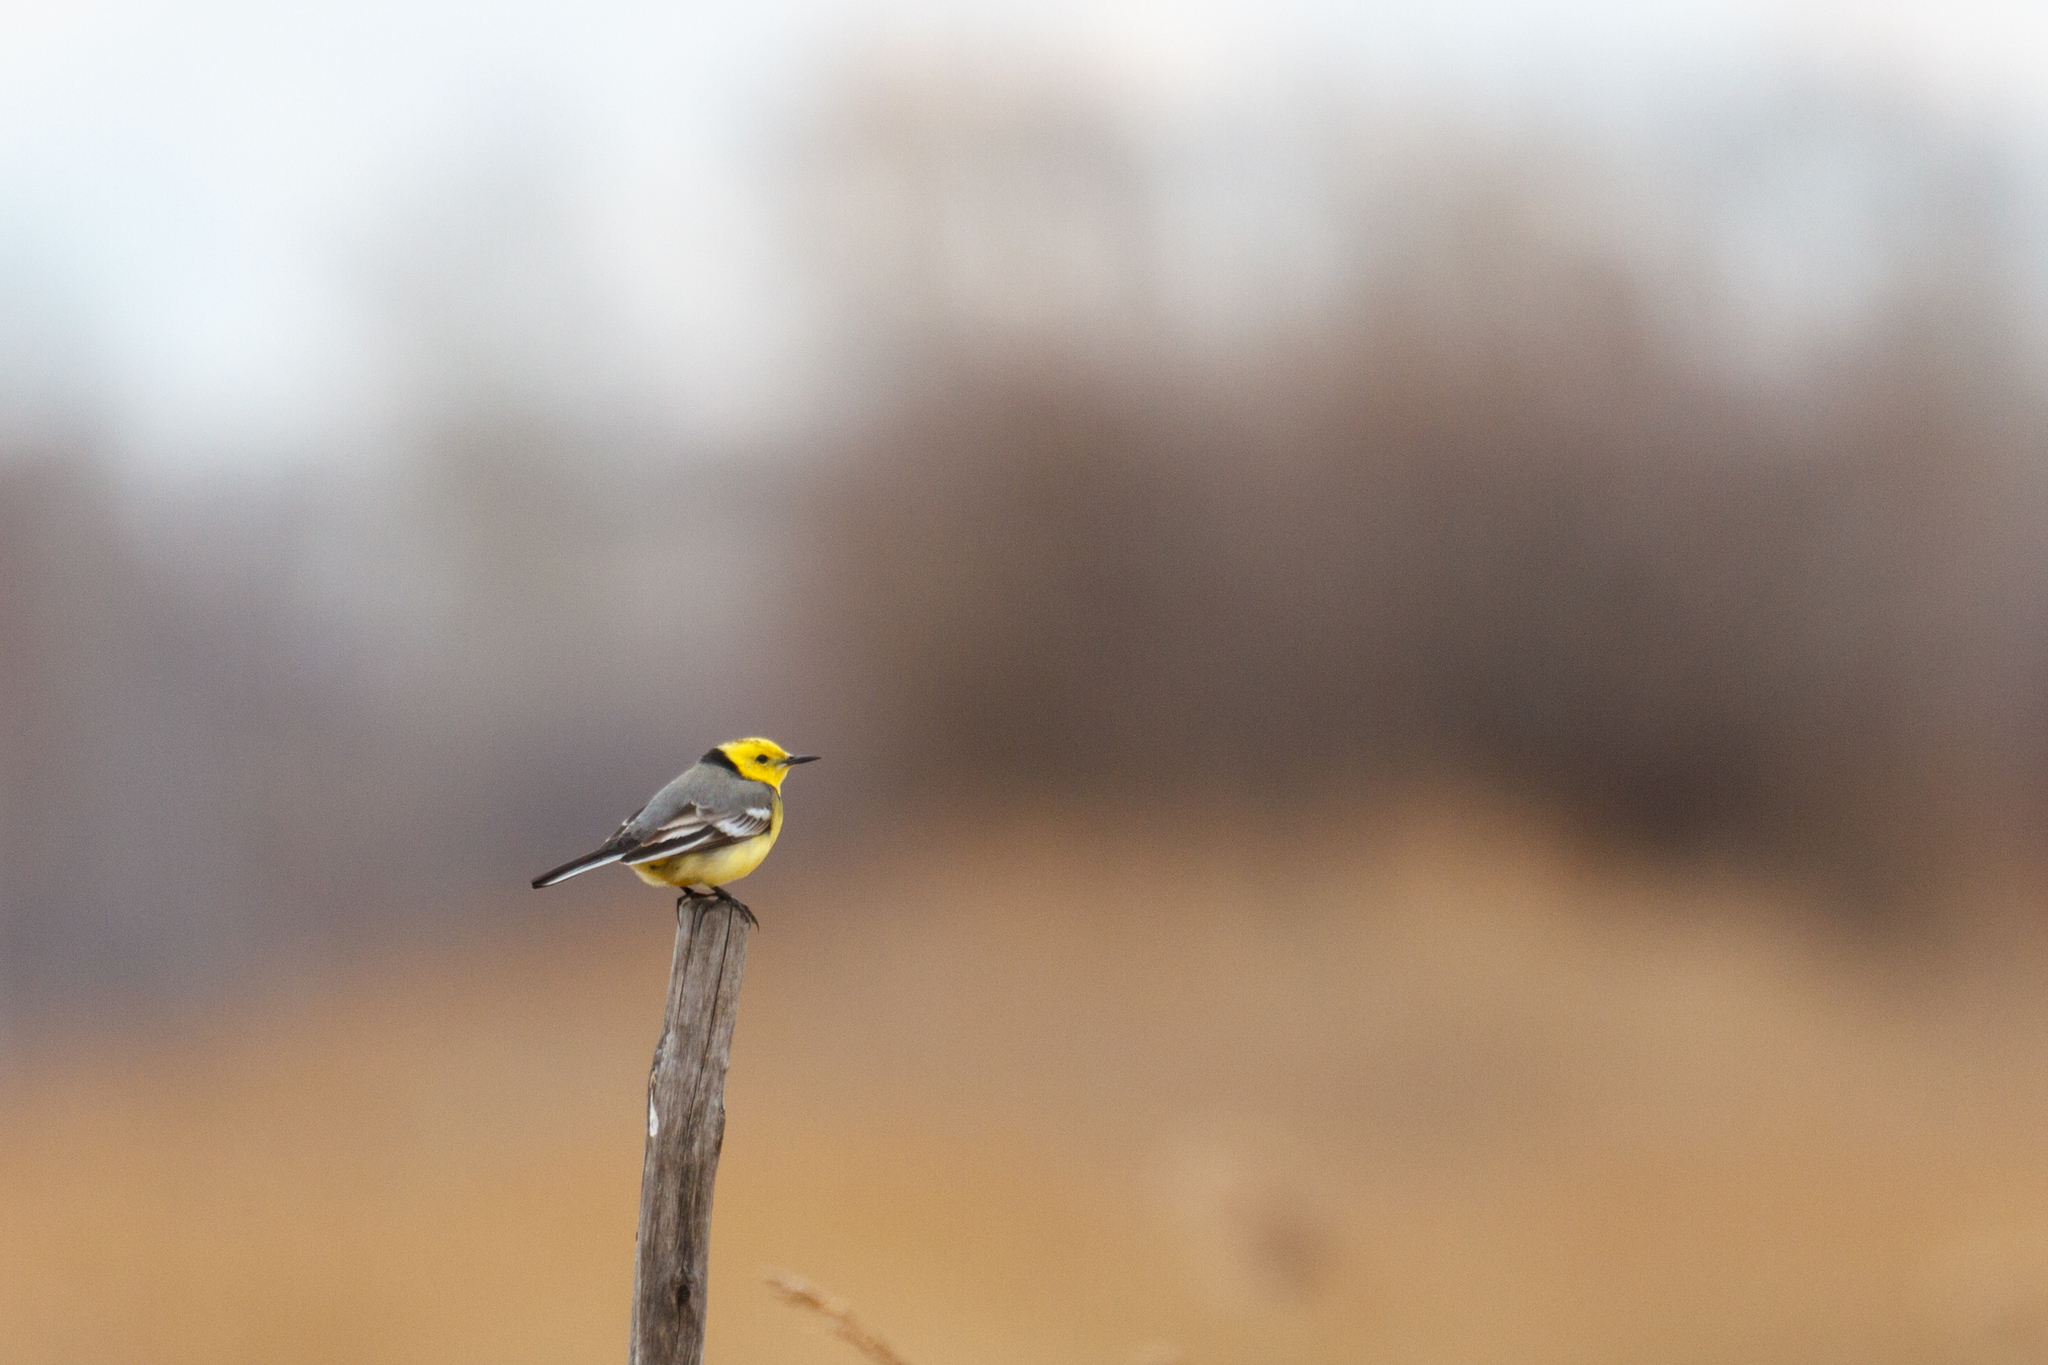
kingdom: Animalia
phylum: Chordata
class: Aves
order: Passeriformes
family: Motacillidae
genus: Motacilla
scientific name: Motacilla citreola
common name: Citrine wagtail
